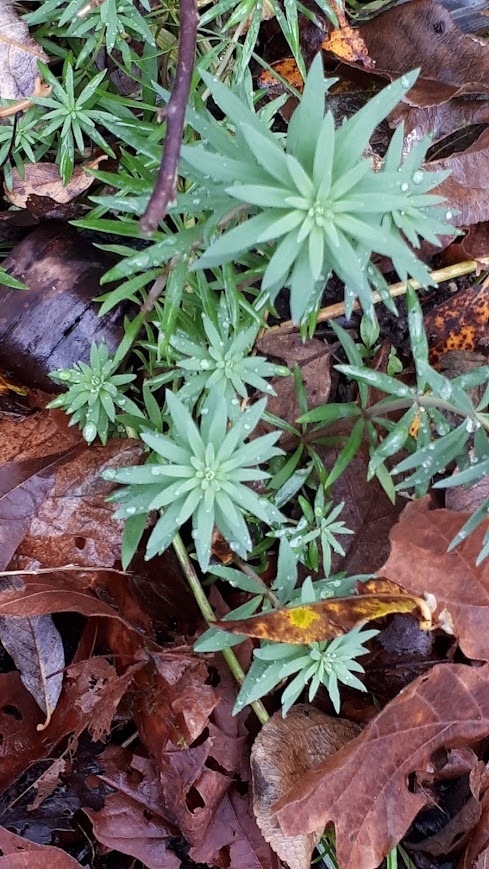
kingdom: Plantae
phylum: Tracheophyta
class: Magnoliopsida
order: Lamiales
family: Plantaginaceae
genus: Linaria
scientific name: Linaria purpurea
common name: Purple toadflax
